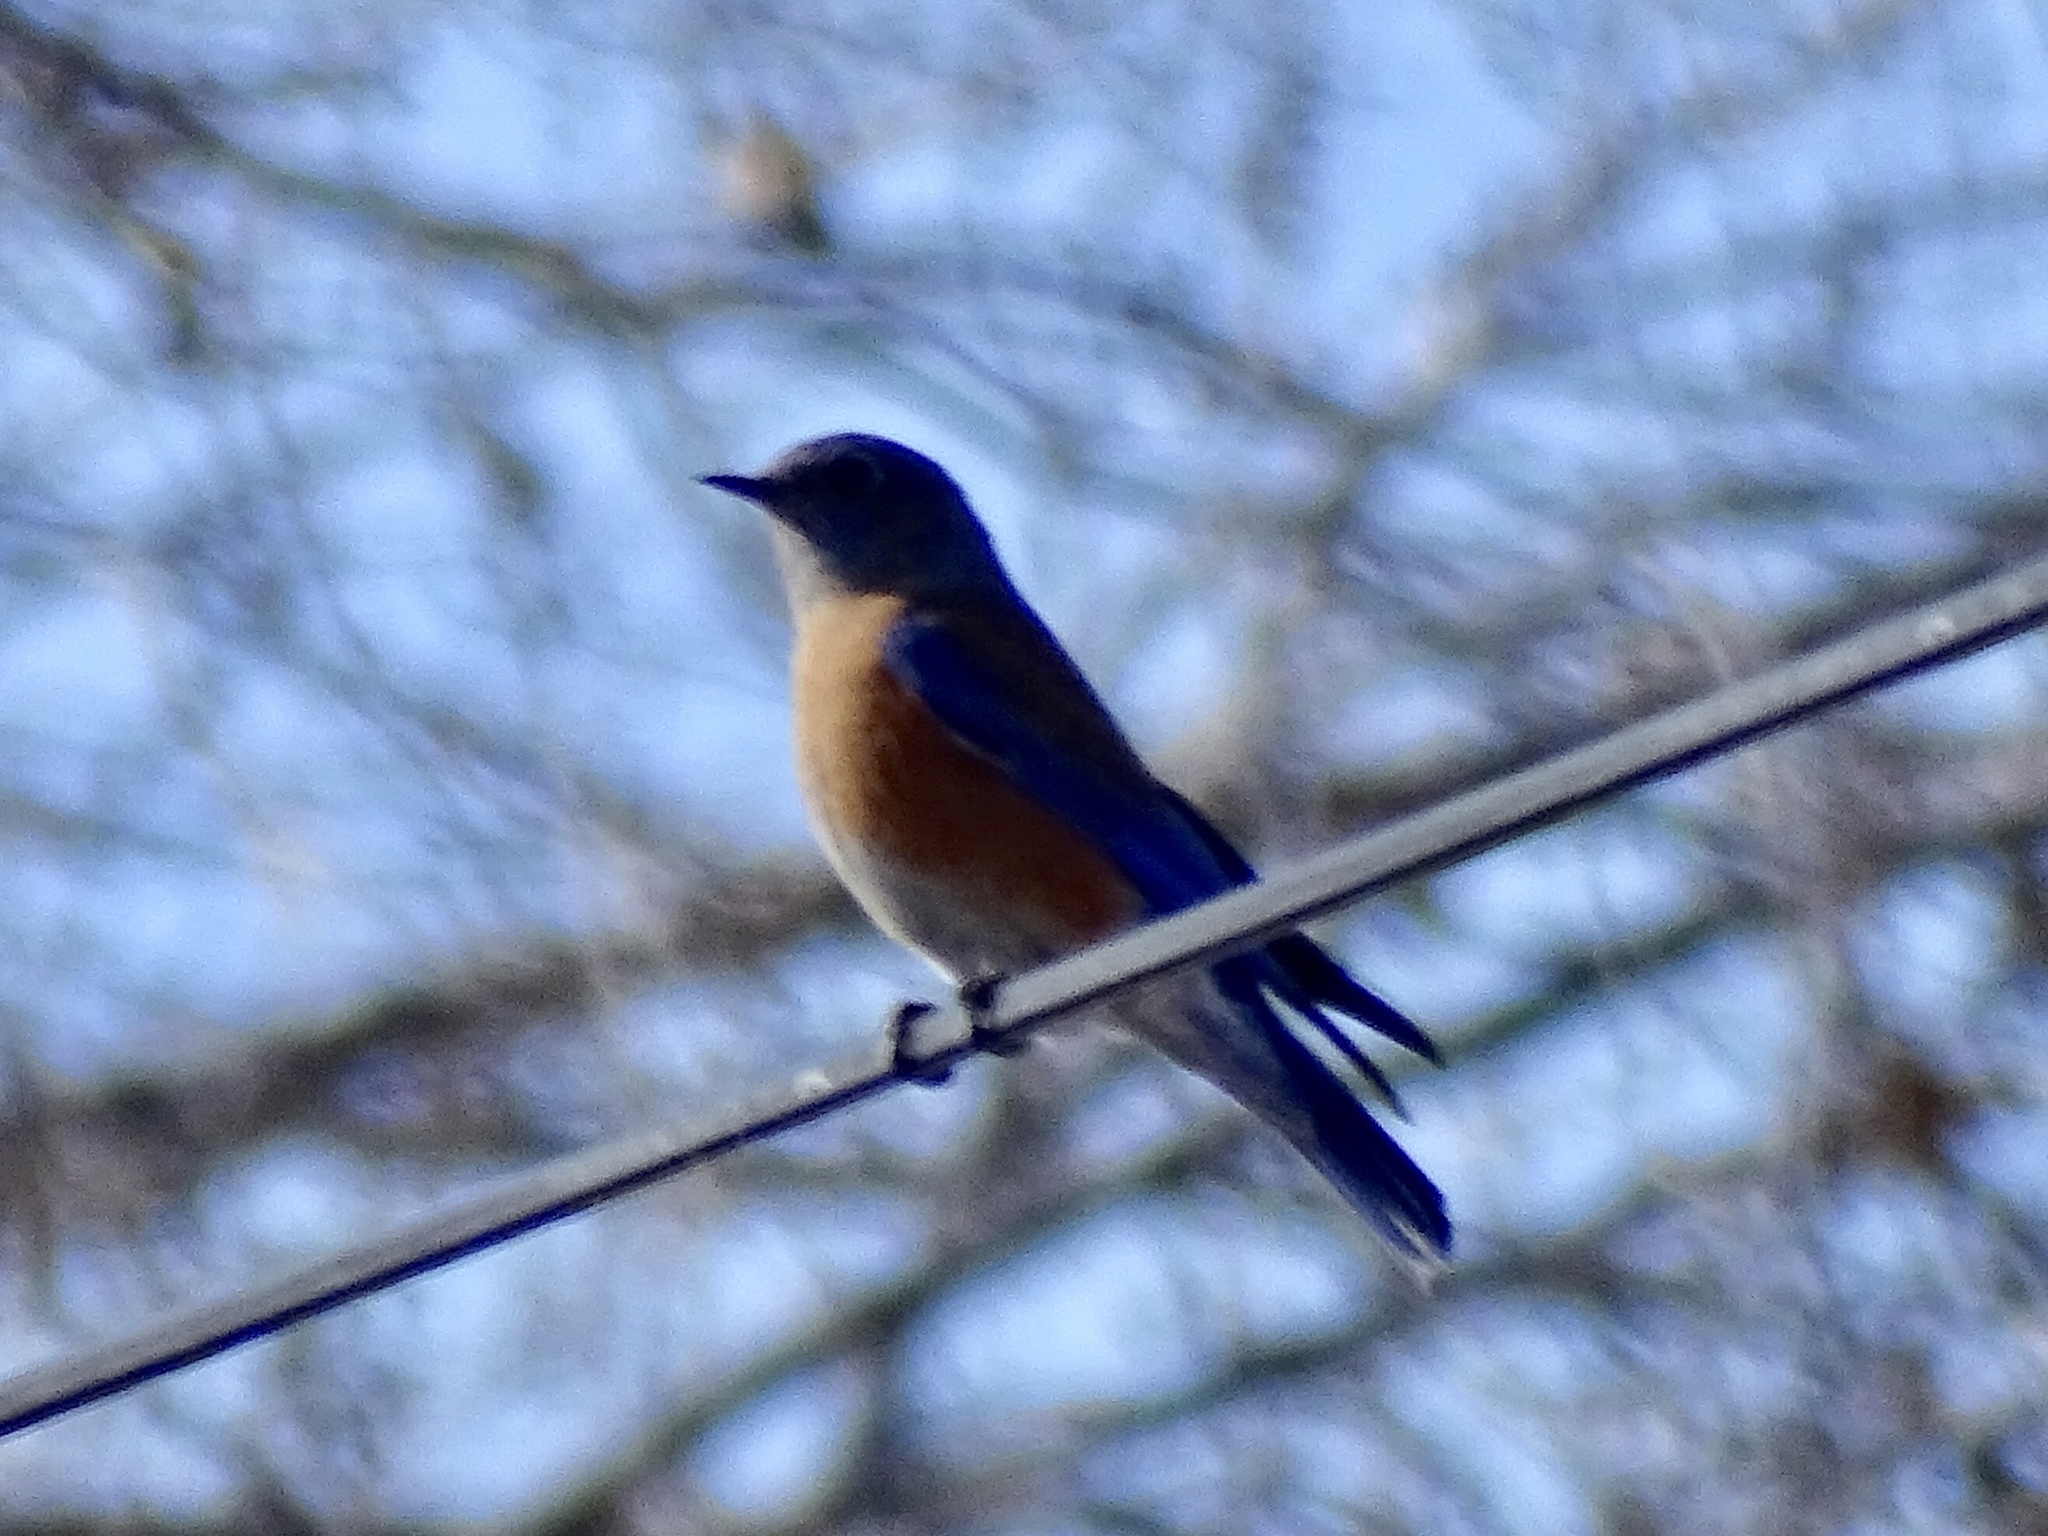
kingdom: Animalia
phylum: Chordata
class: Aves
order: Passeriformes
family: Turdidae
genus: Sialia
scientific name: Sialia mexicana
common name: Western bluebird
